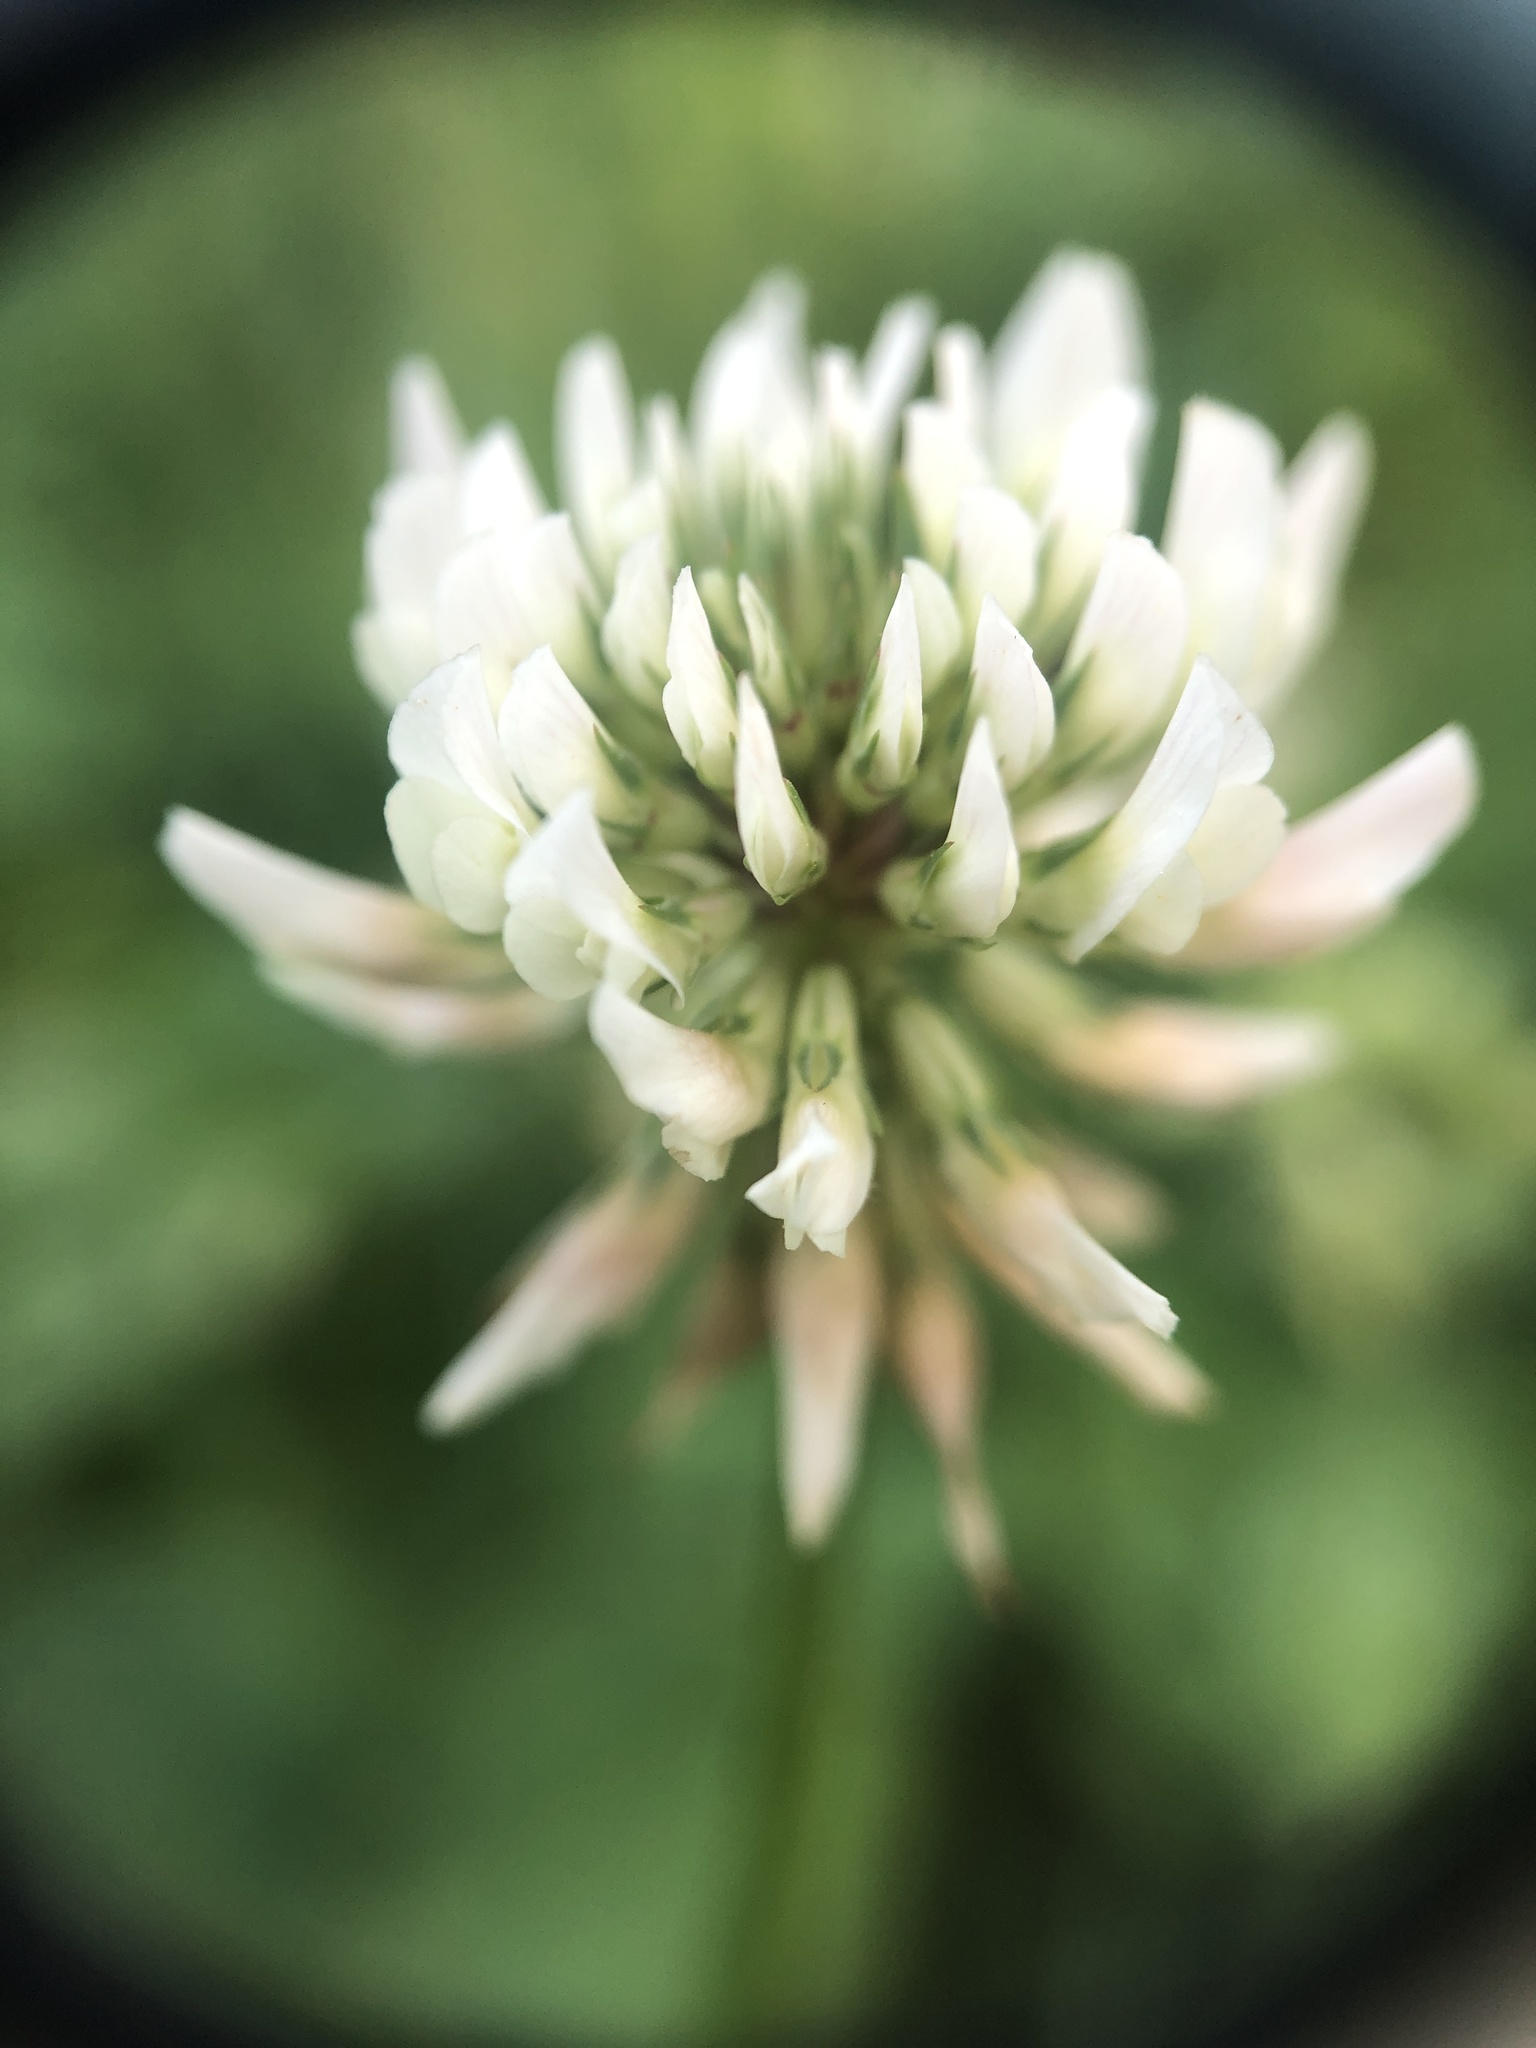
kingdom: Plantae
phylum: Tracheophyta
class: Magnoliopsida
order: Fabales
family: Fabaceae
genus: Trifolium
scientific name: Trifolium repens
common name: White clover
